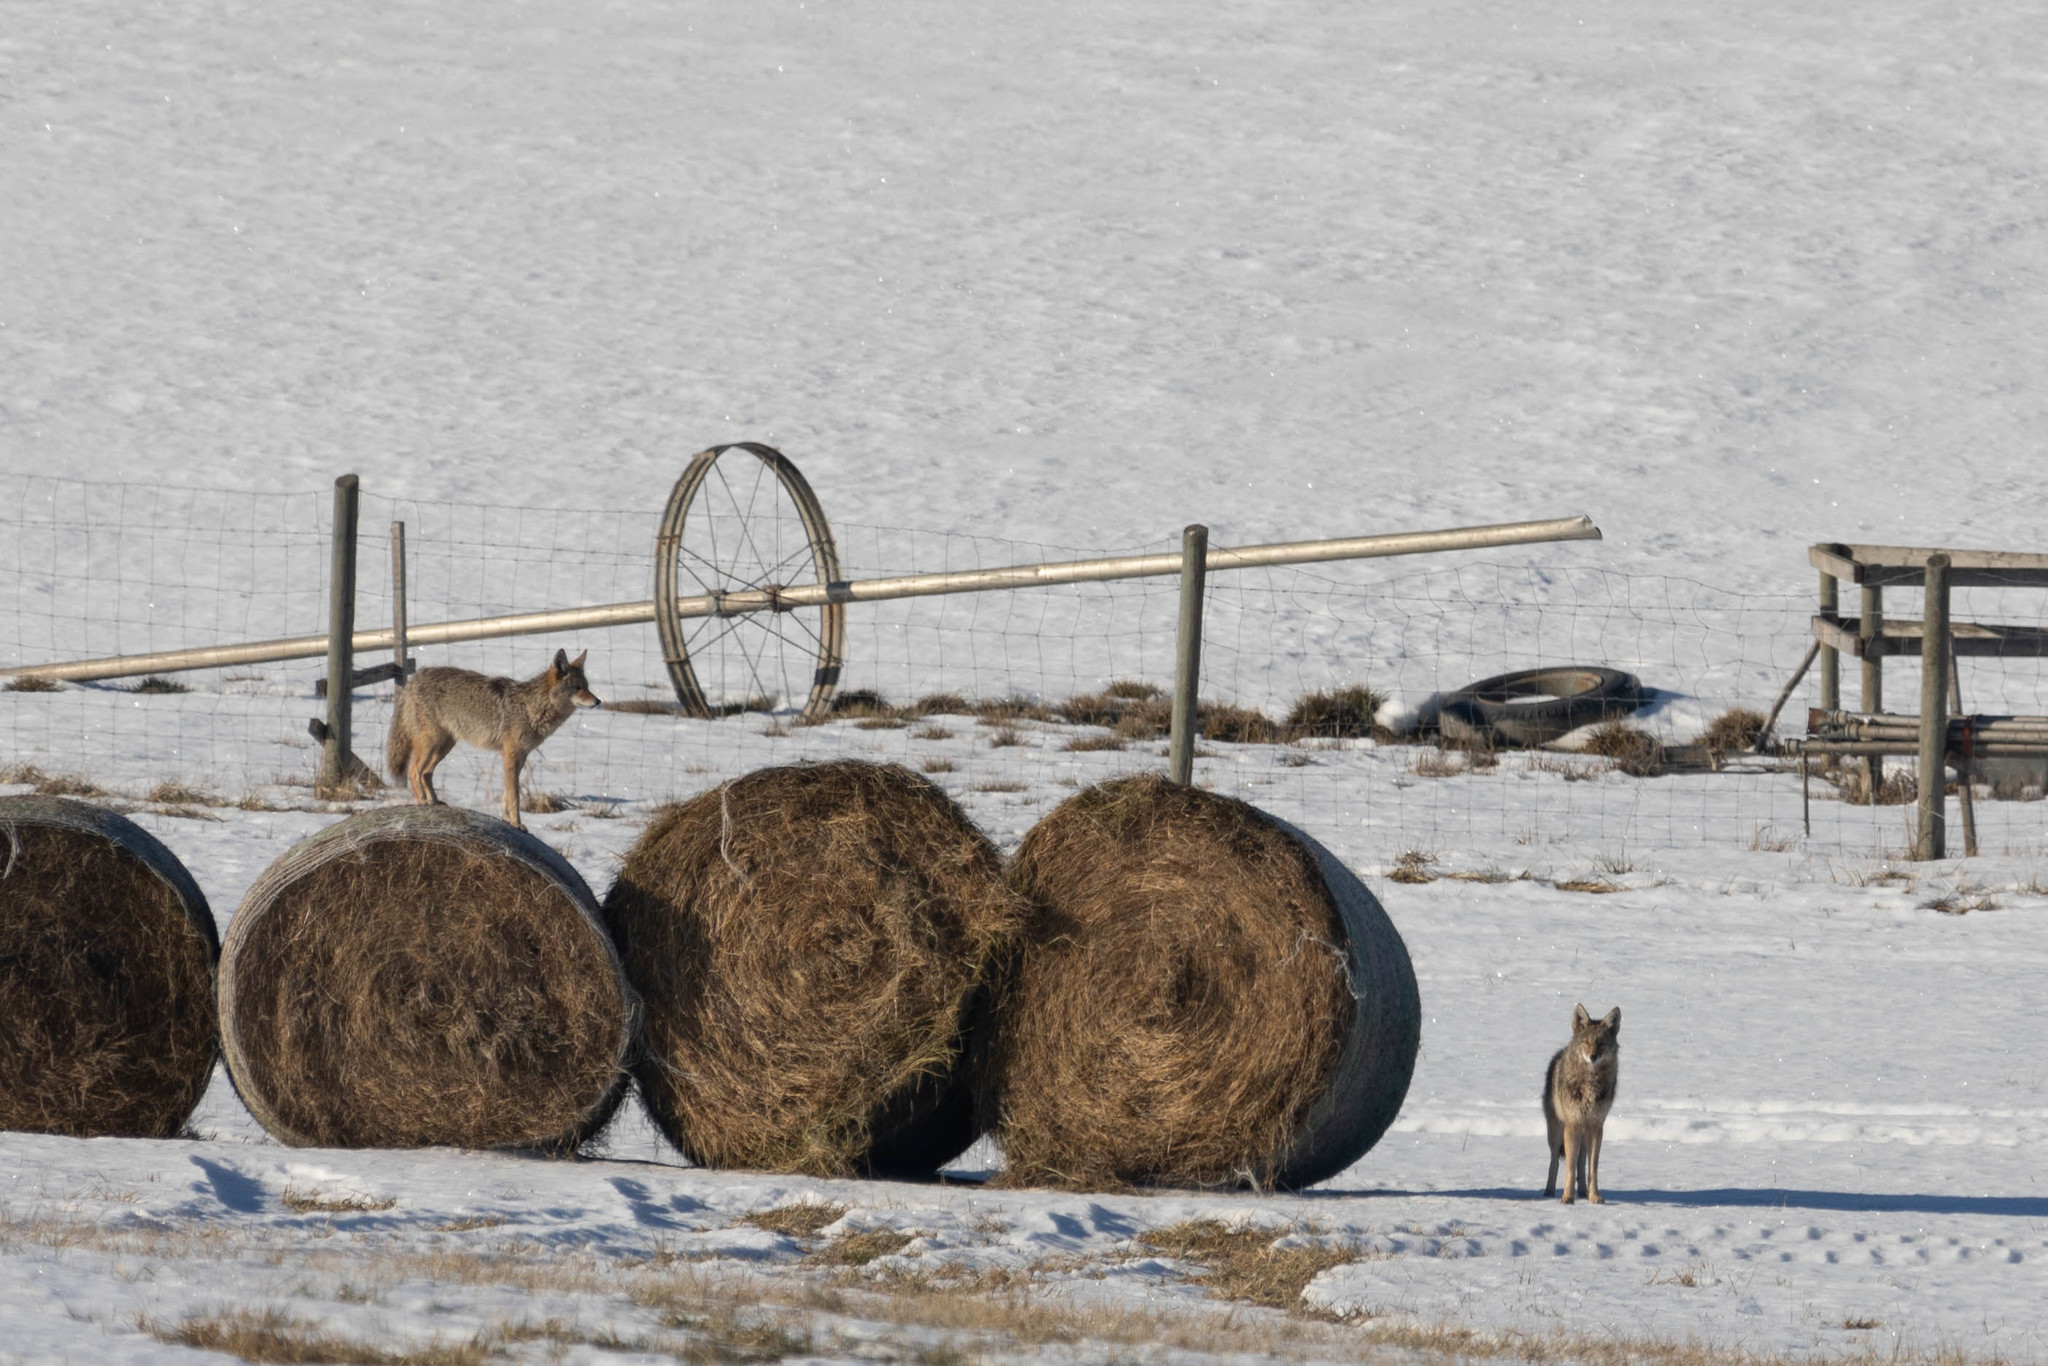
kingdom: Animalia
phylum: Chordata
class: Mammalia
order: Carnivora
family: Canidae
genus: Canis
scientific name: Canis latrans
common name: Coyote
